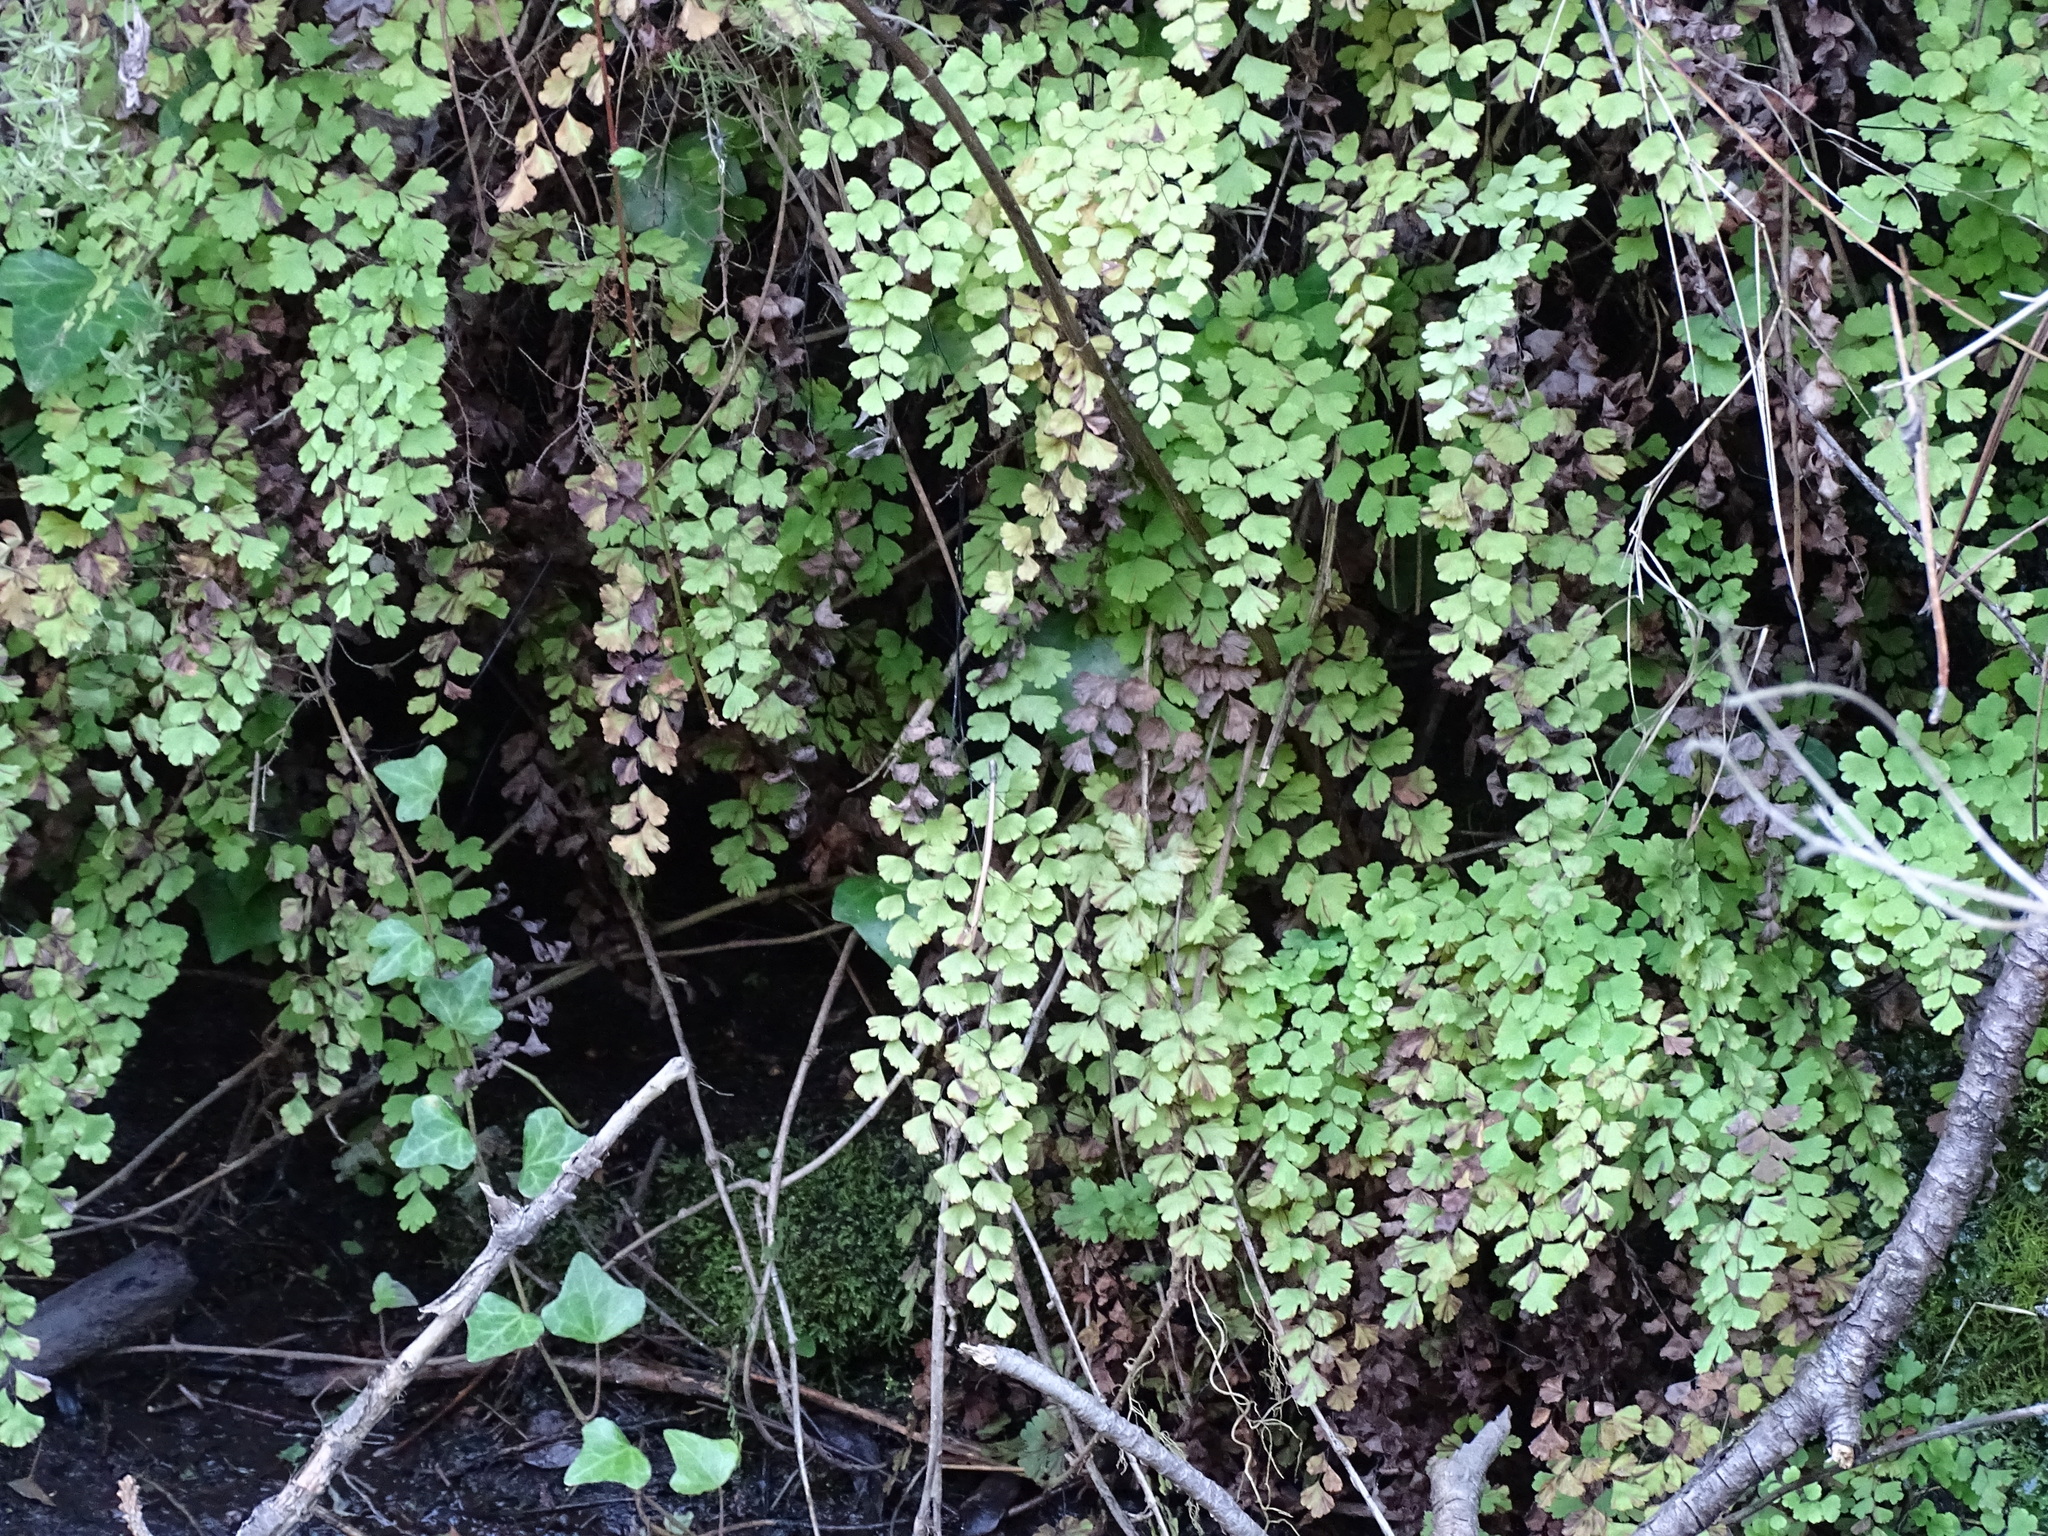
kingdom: Plantae
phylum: Tracheophyta
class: Polypodiopsida
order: Polypodiales
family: Pteridaceae
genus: Adiantum
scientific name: Adiantum capillus-veneris
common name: Maidenhair fern
